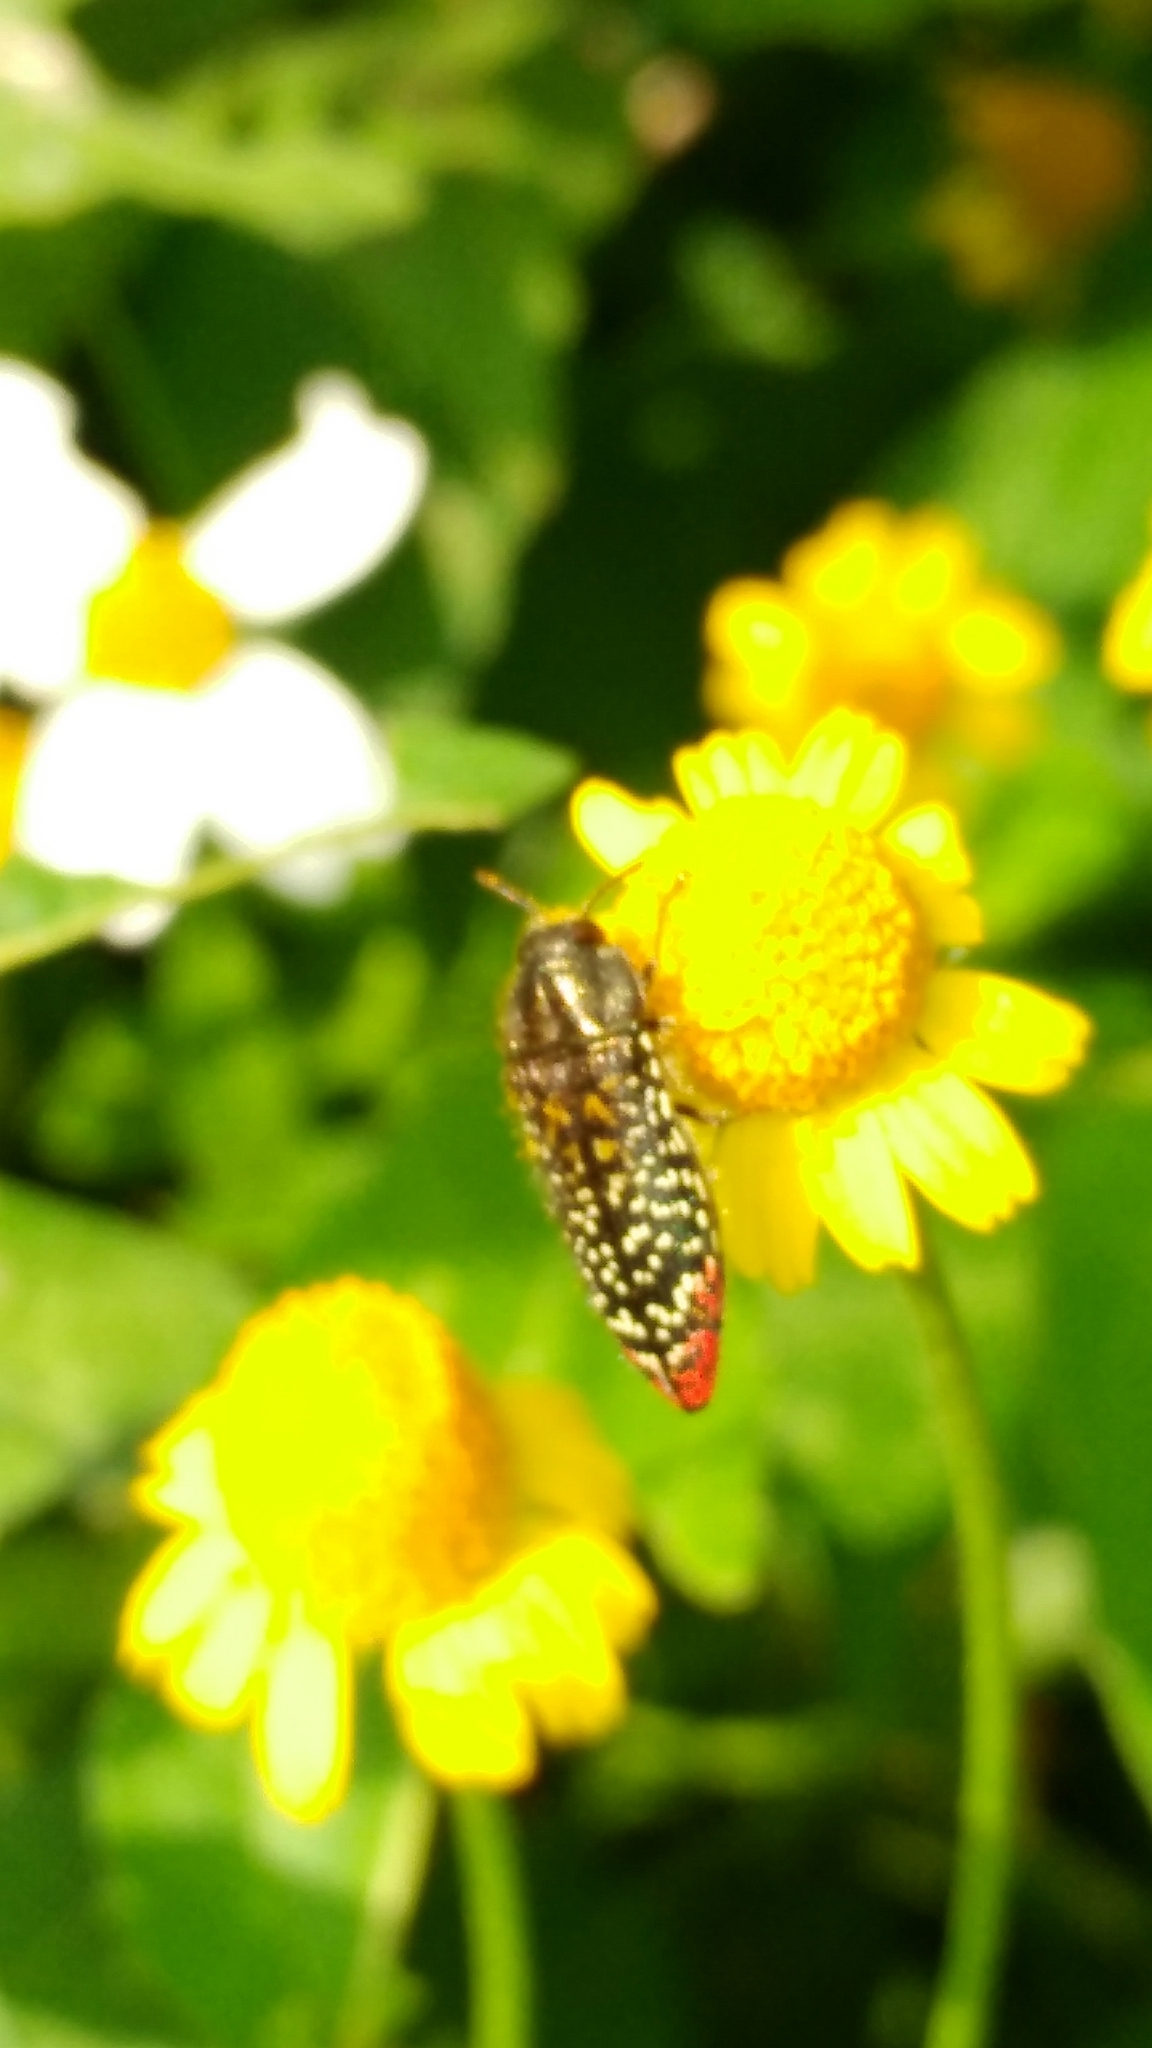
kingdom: Animalia
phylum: Arthropoda
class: Insecta
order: Coleoptera
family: Buprestidae
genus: Acmaeodera
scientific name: Acmaeodera haemorrhoa
